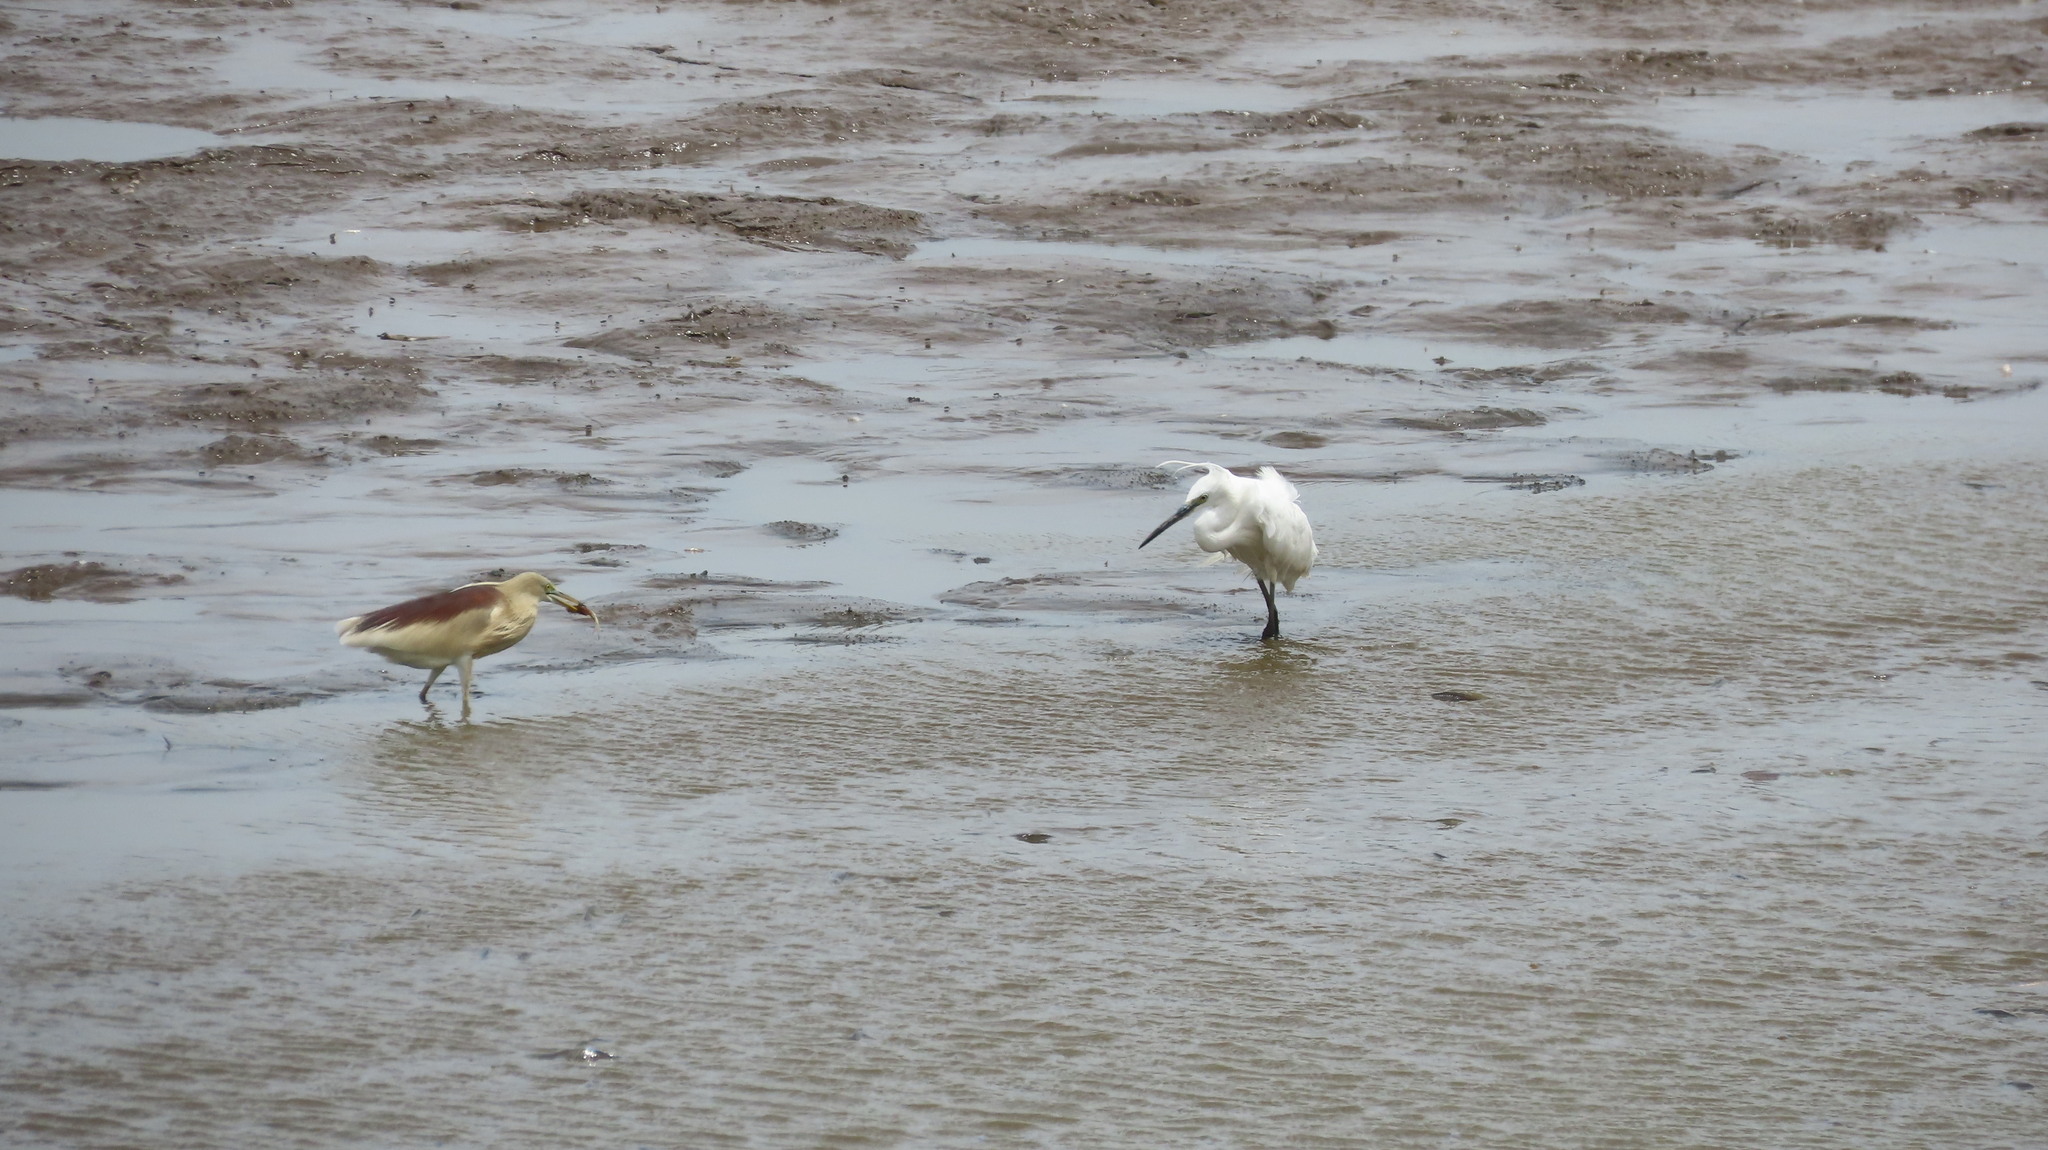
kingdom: Animalia
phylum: Chordata
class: Aves
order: Pelecaniformes
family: Ardeidae
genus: Ardeola
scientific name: Ardeola grayii
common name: Indian pond heron
